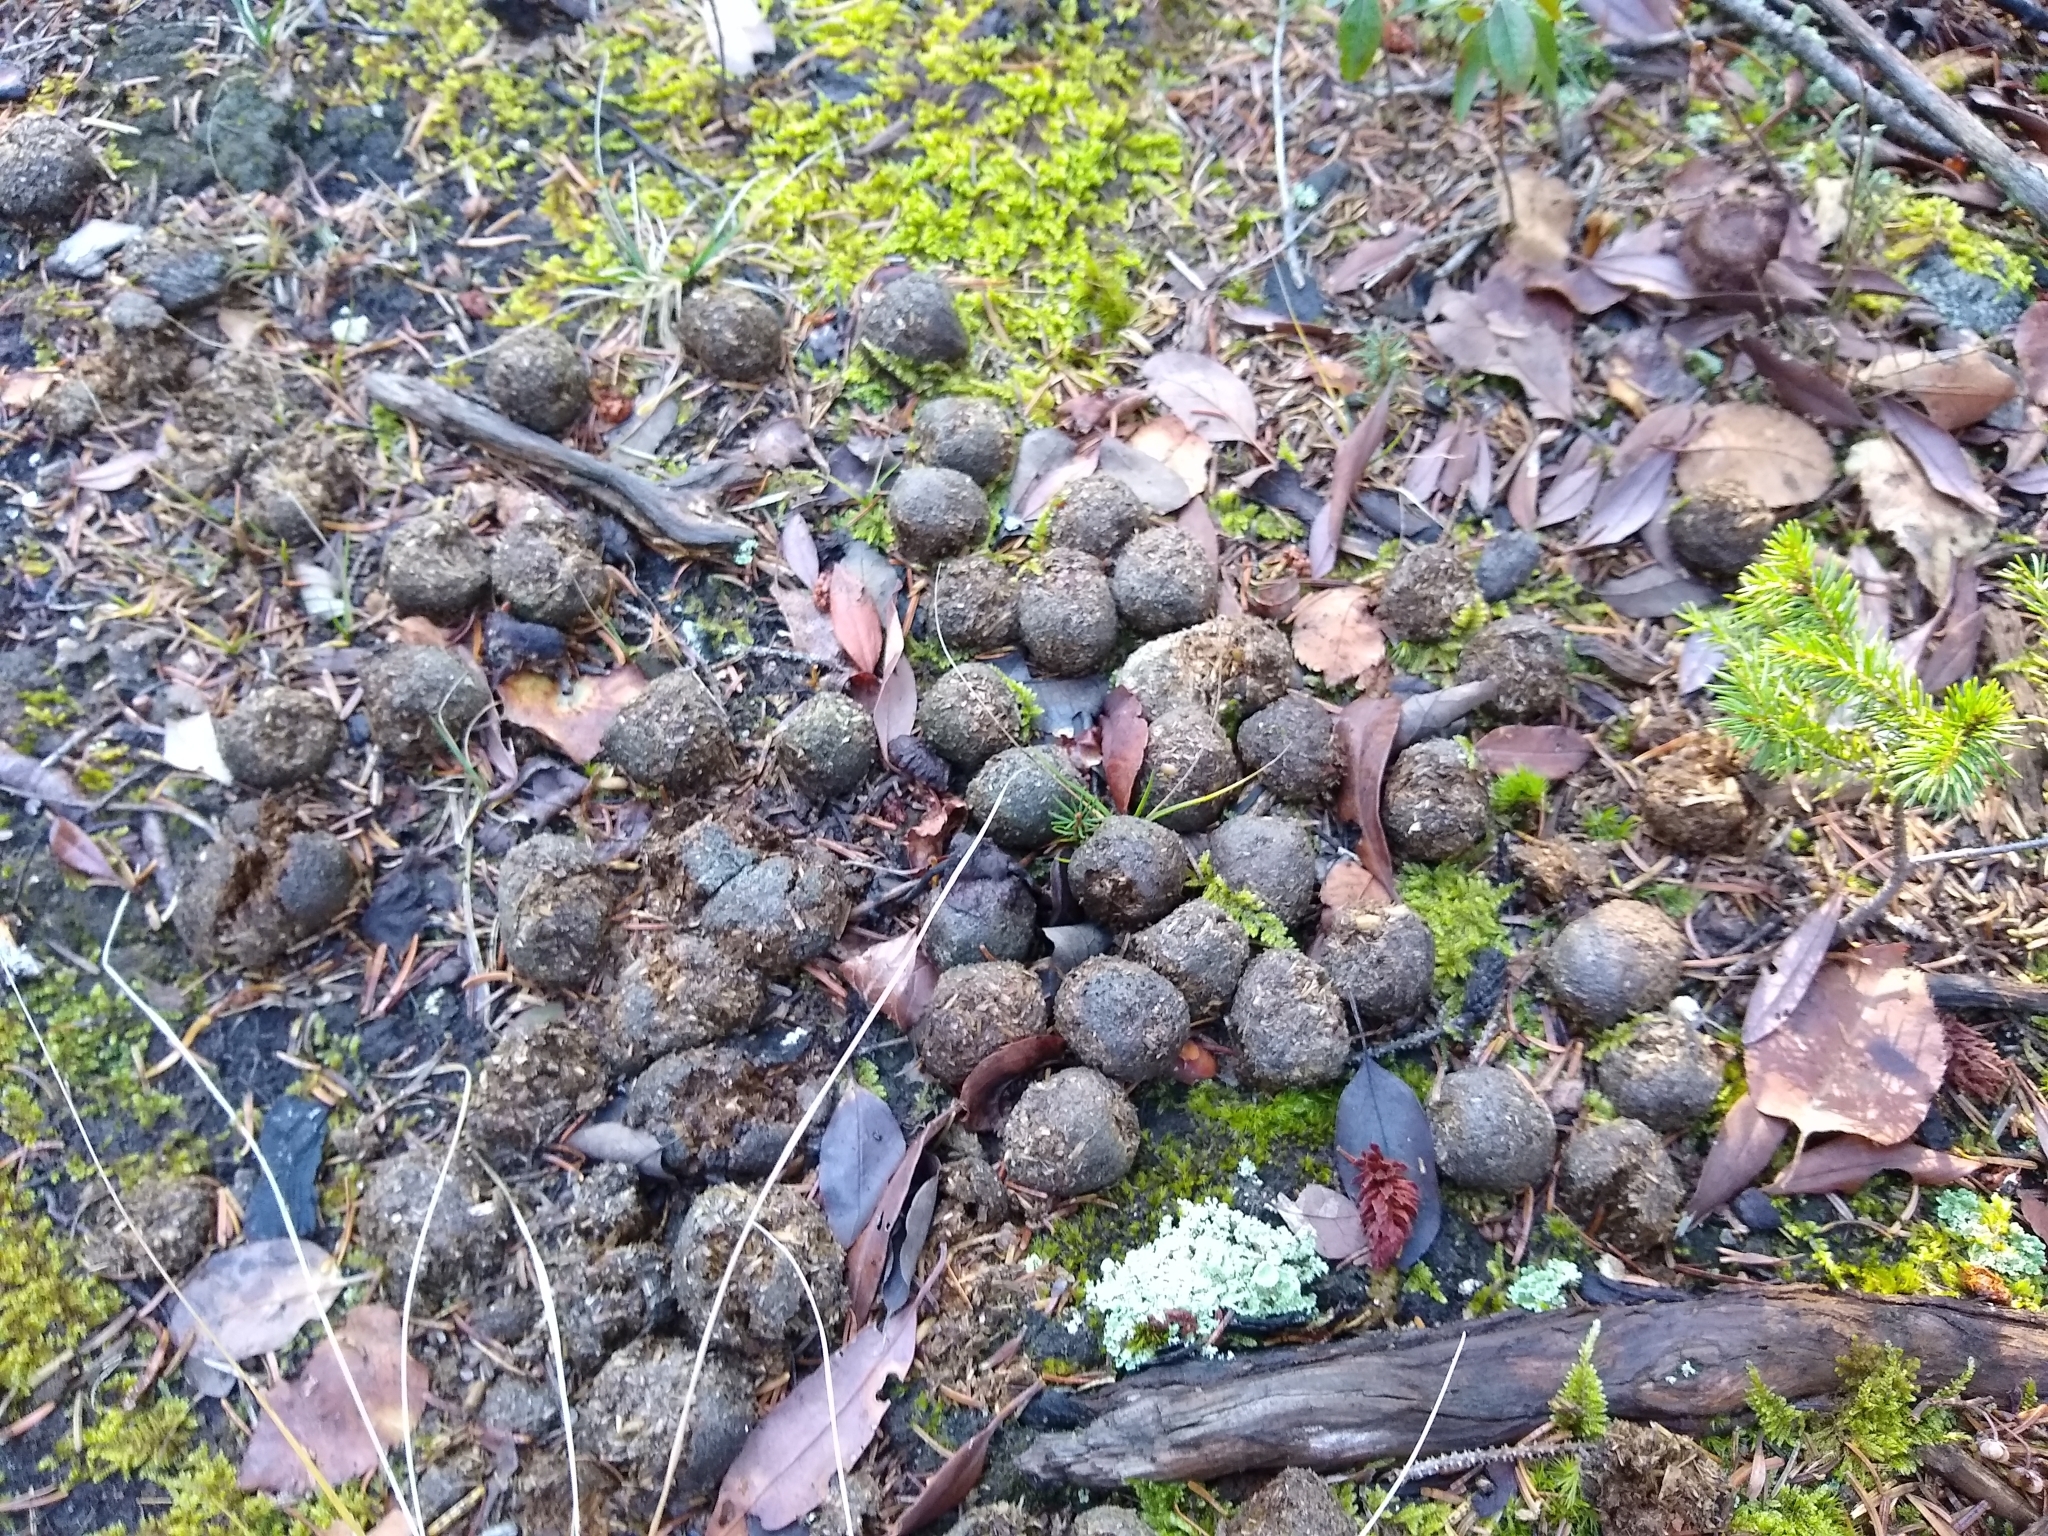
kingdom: Animalia
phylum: Chordata
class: Mammalia
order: Artiodactyla
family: Cervidae
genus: Alces
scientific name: Alces alces
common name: Moose
